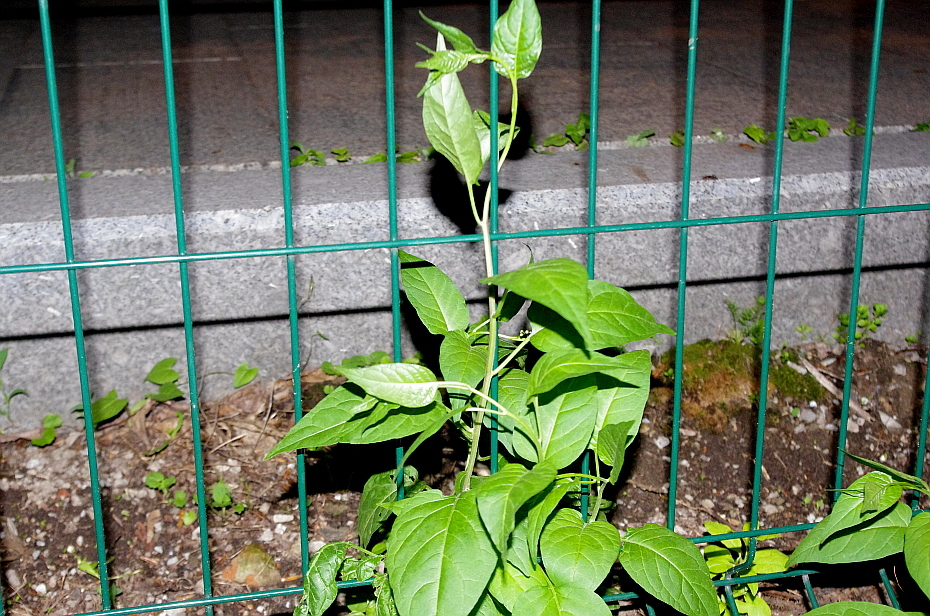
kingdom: Plantae
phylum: Tracheophyta
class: Magnoliopsida
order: Solanales
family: Solanaceae
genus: Solanum
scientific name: Solanum dulcamara
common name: Climbing nightshade
